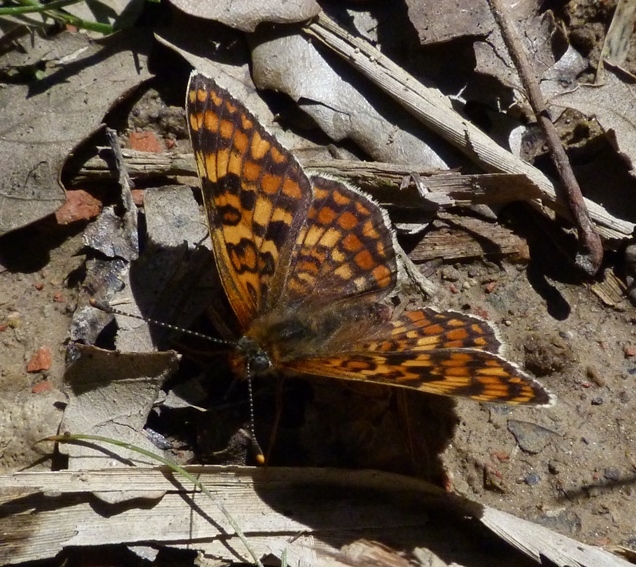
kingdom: Animalia
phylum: Arthropoda
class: Insecta
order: Lepidoptera
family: Nymphalidae
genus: Melitaea
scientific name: Melitaea phoebe
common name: Knapweed fritillary
